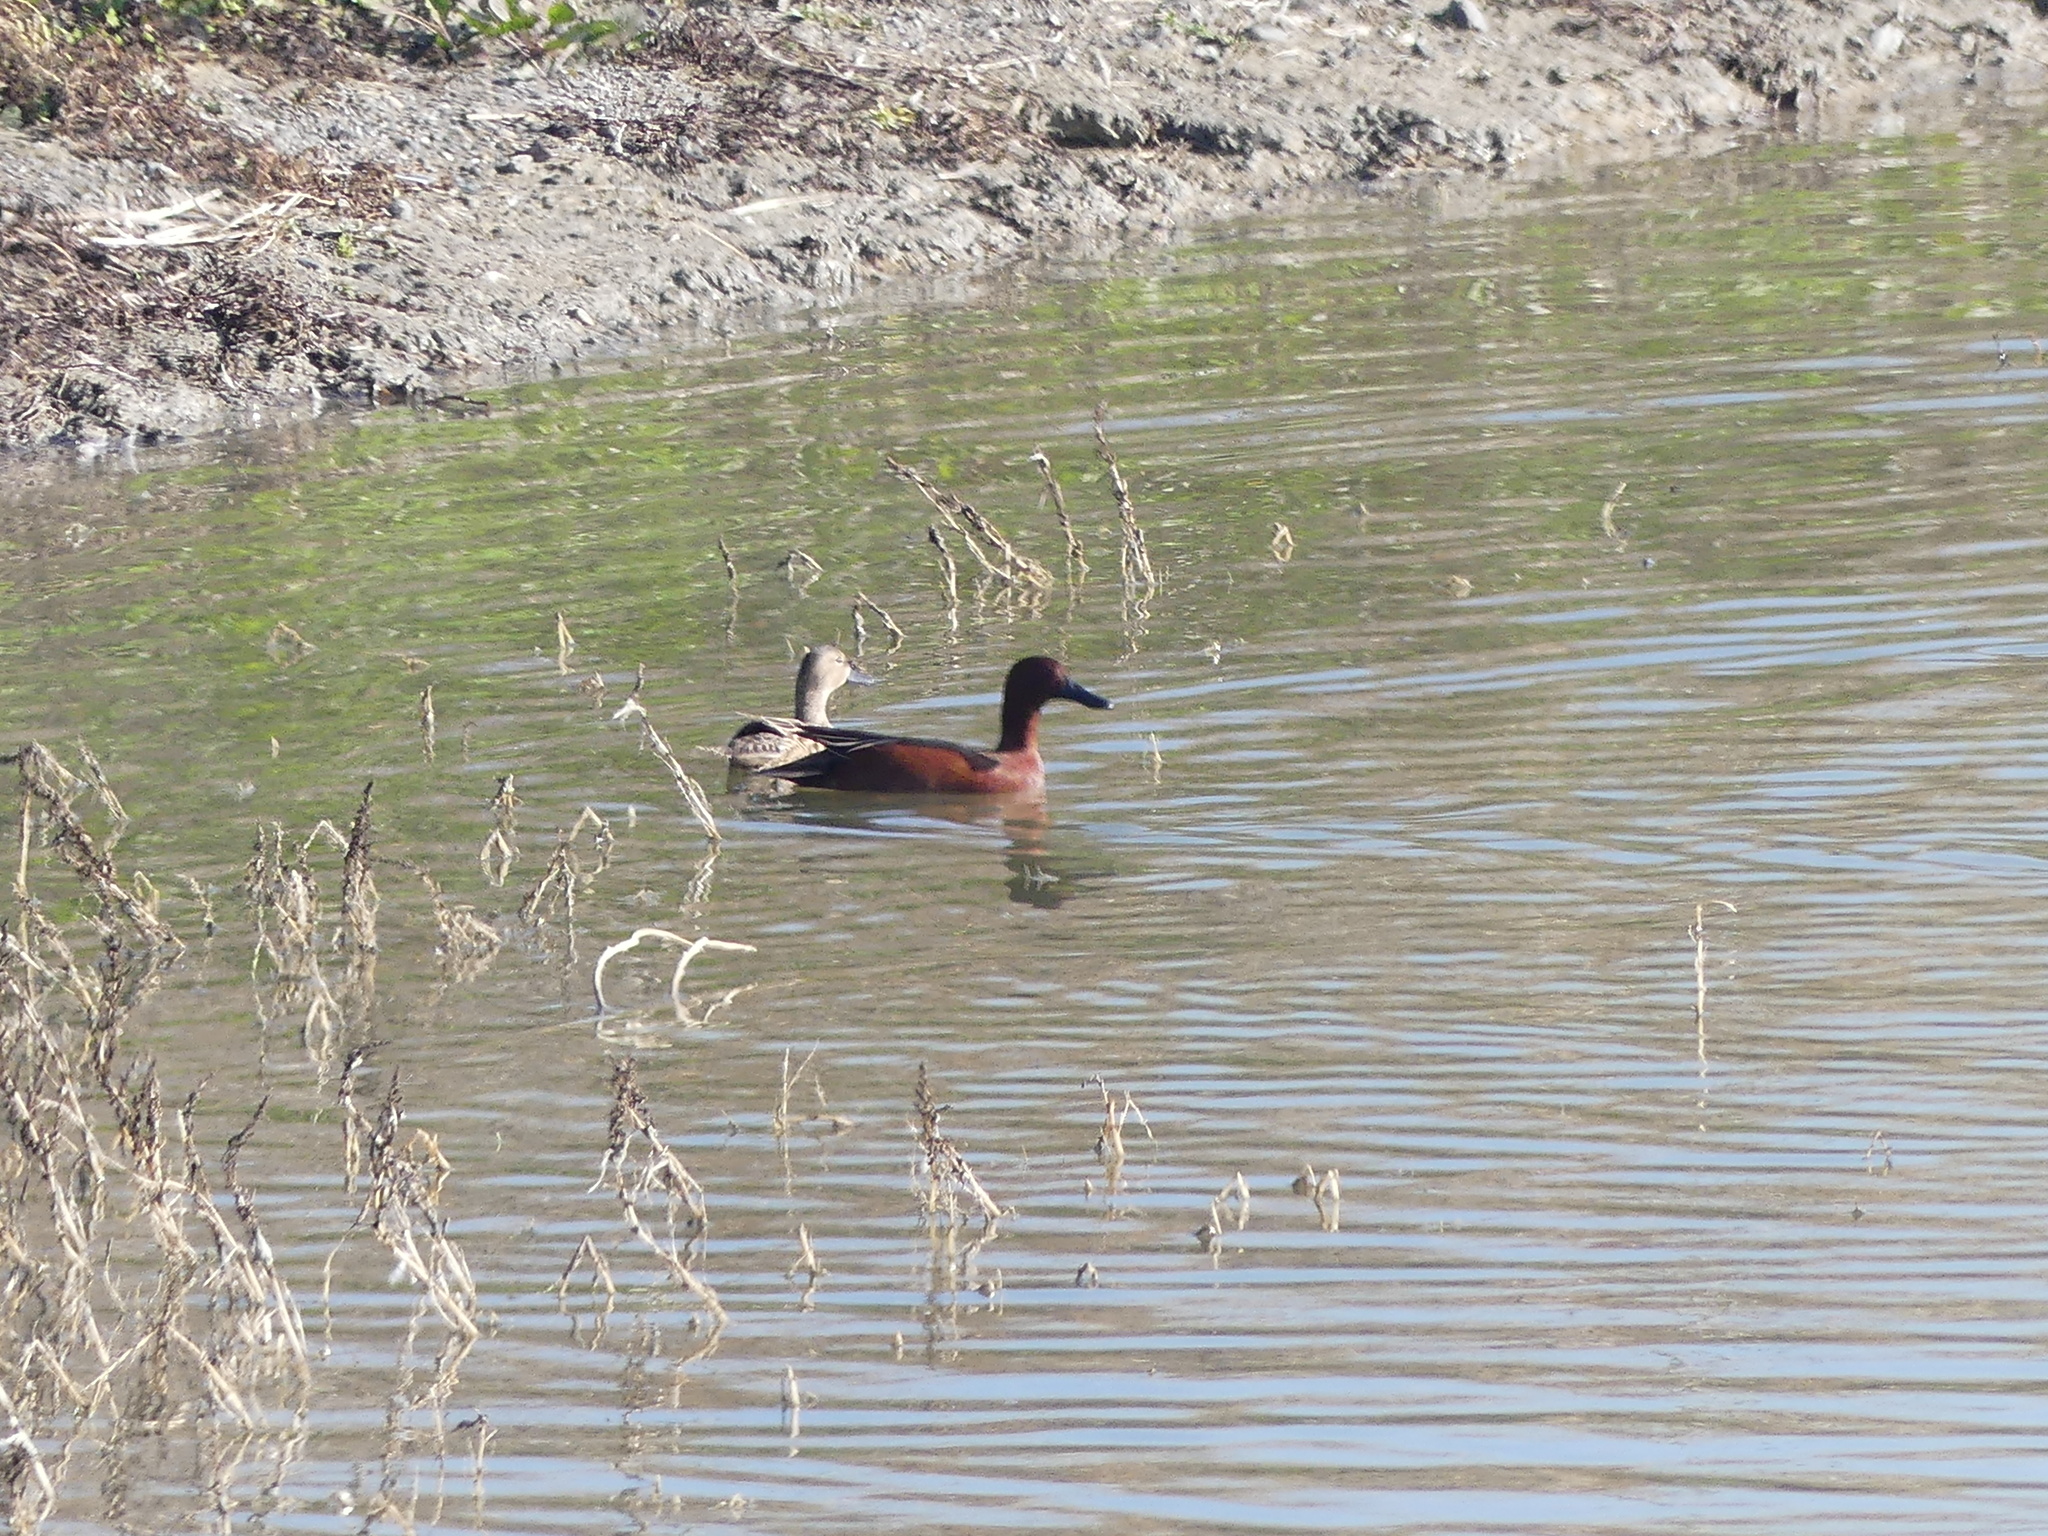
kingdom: Animalia
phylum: Chordata
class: Aves
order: Anseriformes
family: Anatidae
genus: Spatula
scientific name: Spatula cyanoptera
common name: Cinnamon teal
